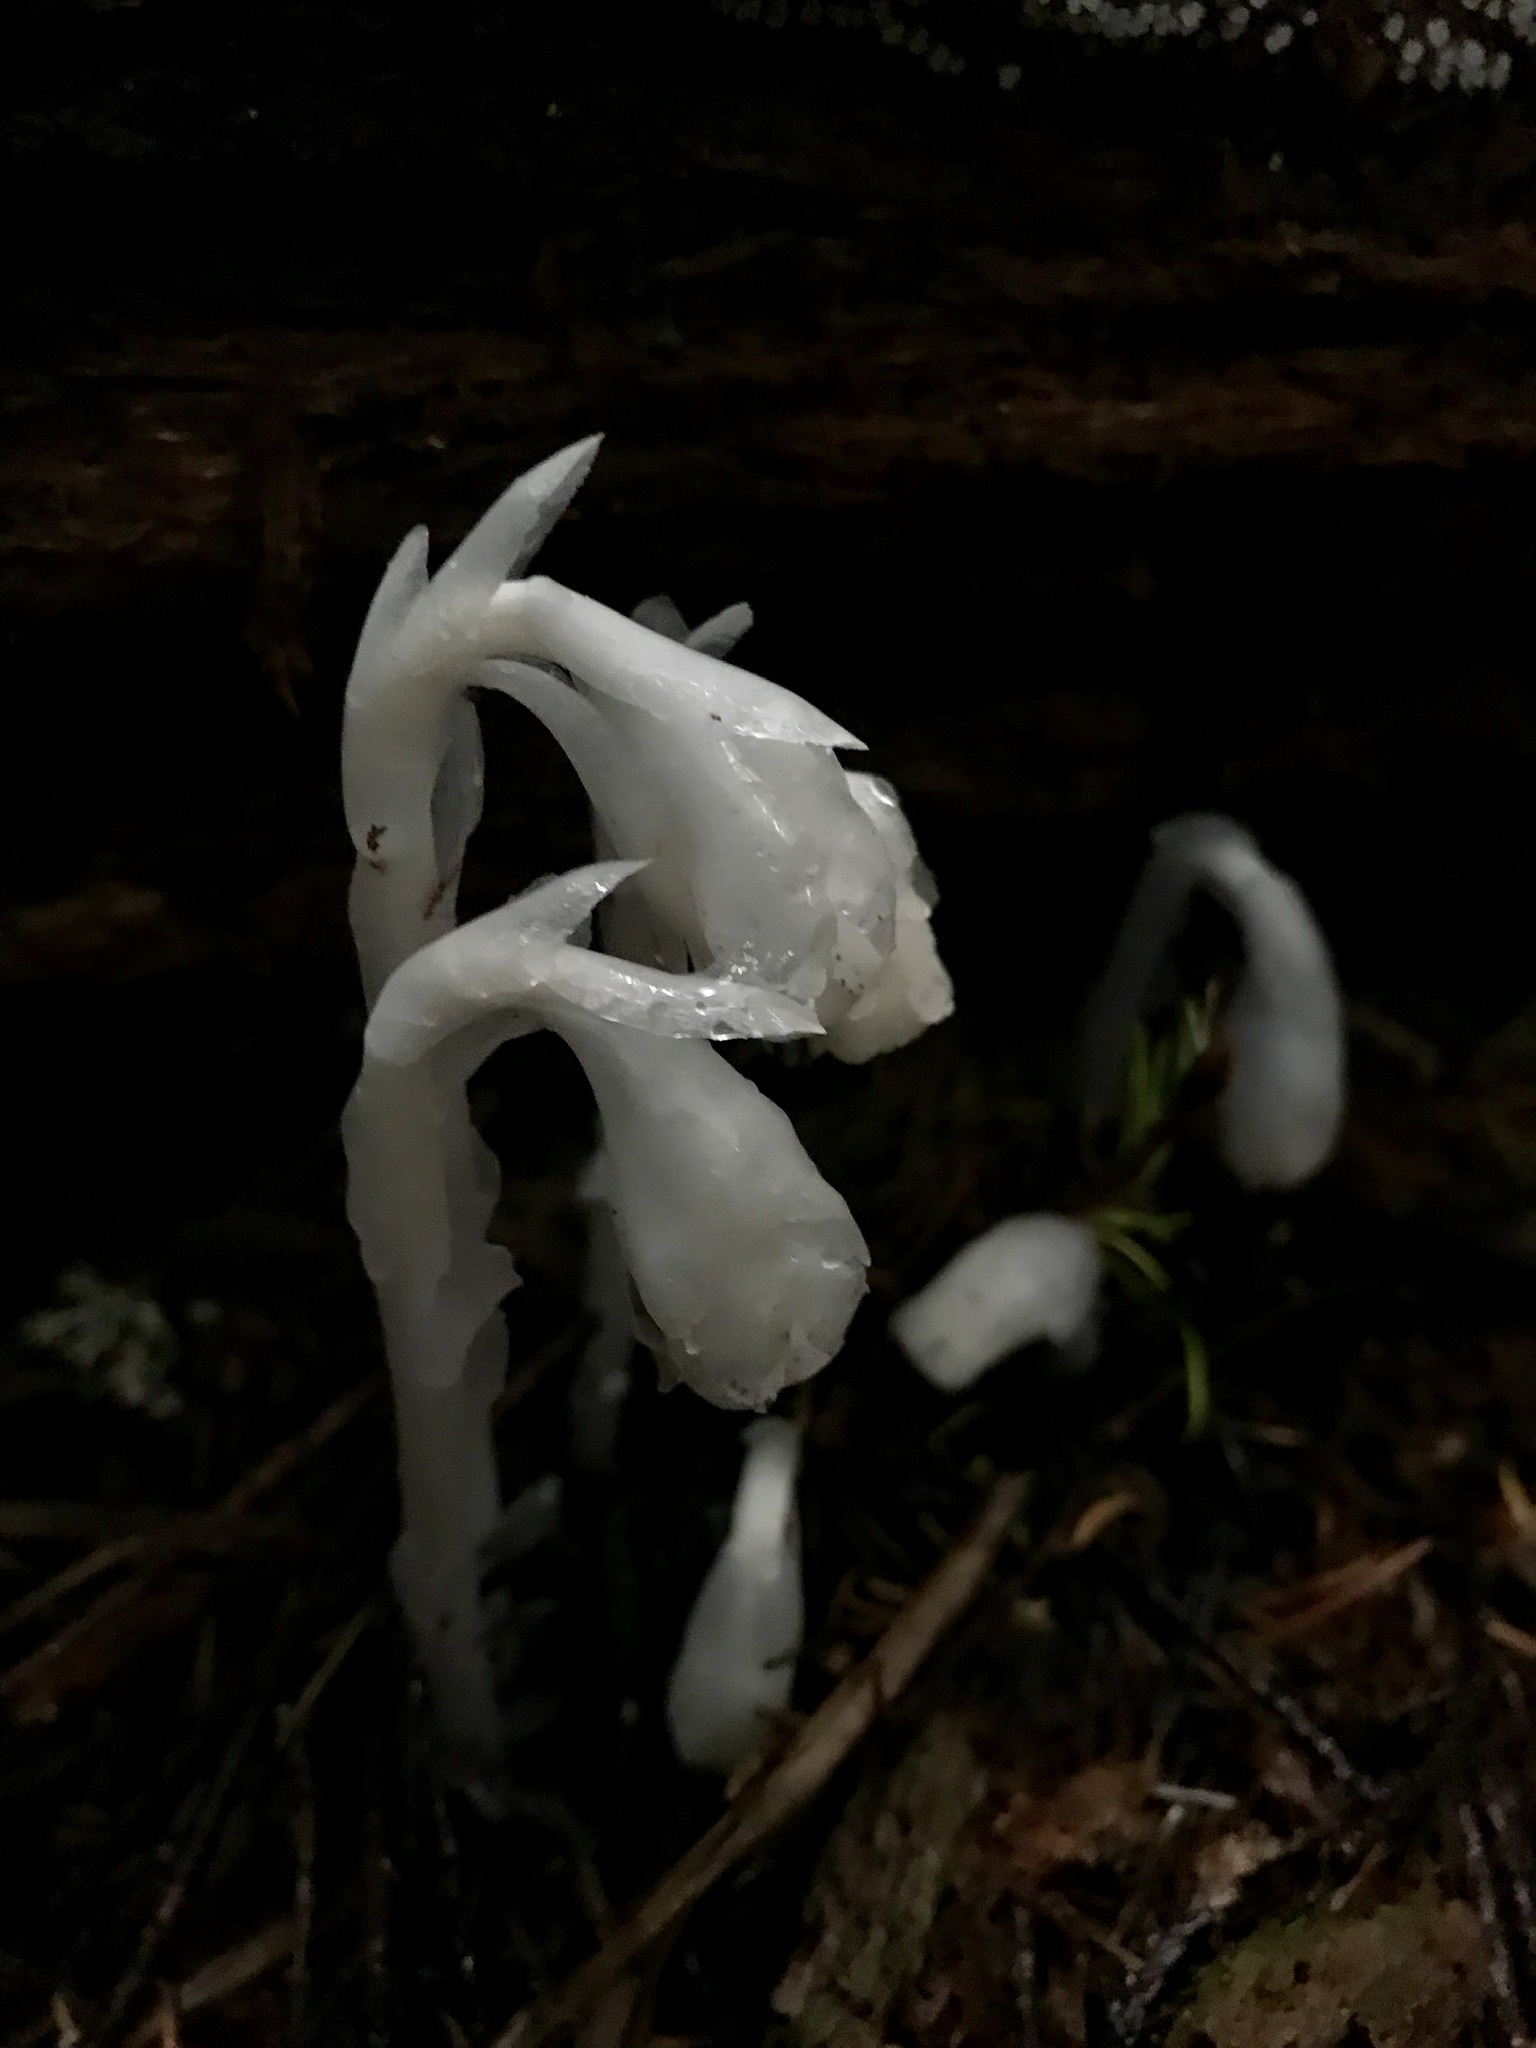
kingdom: Plantae
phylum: Tracheophyta
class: Magnoliopsida
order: Ericales
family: Ericaceae
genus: Monotropa
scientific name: Monotropa uniflora
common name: Convulsion root
